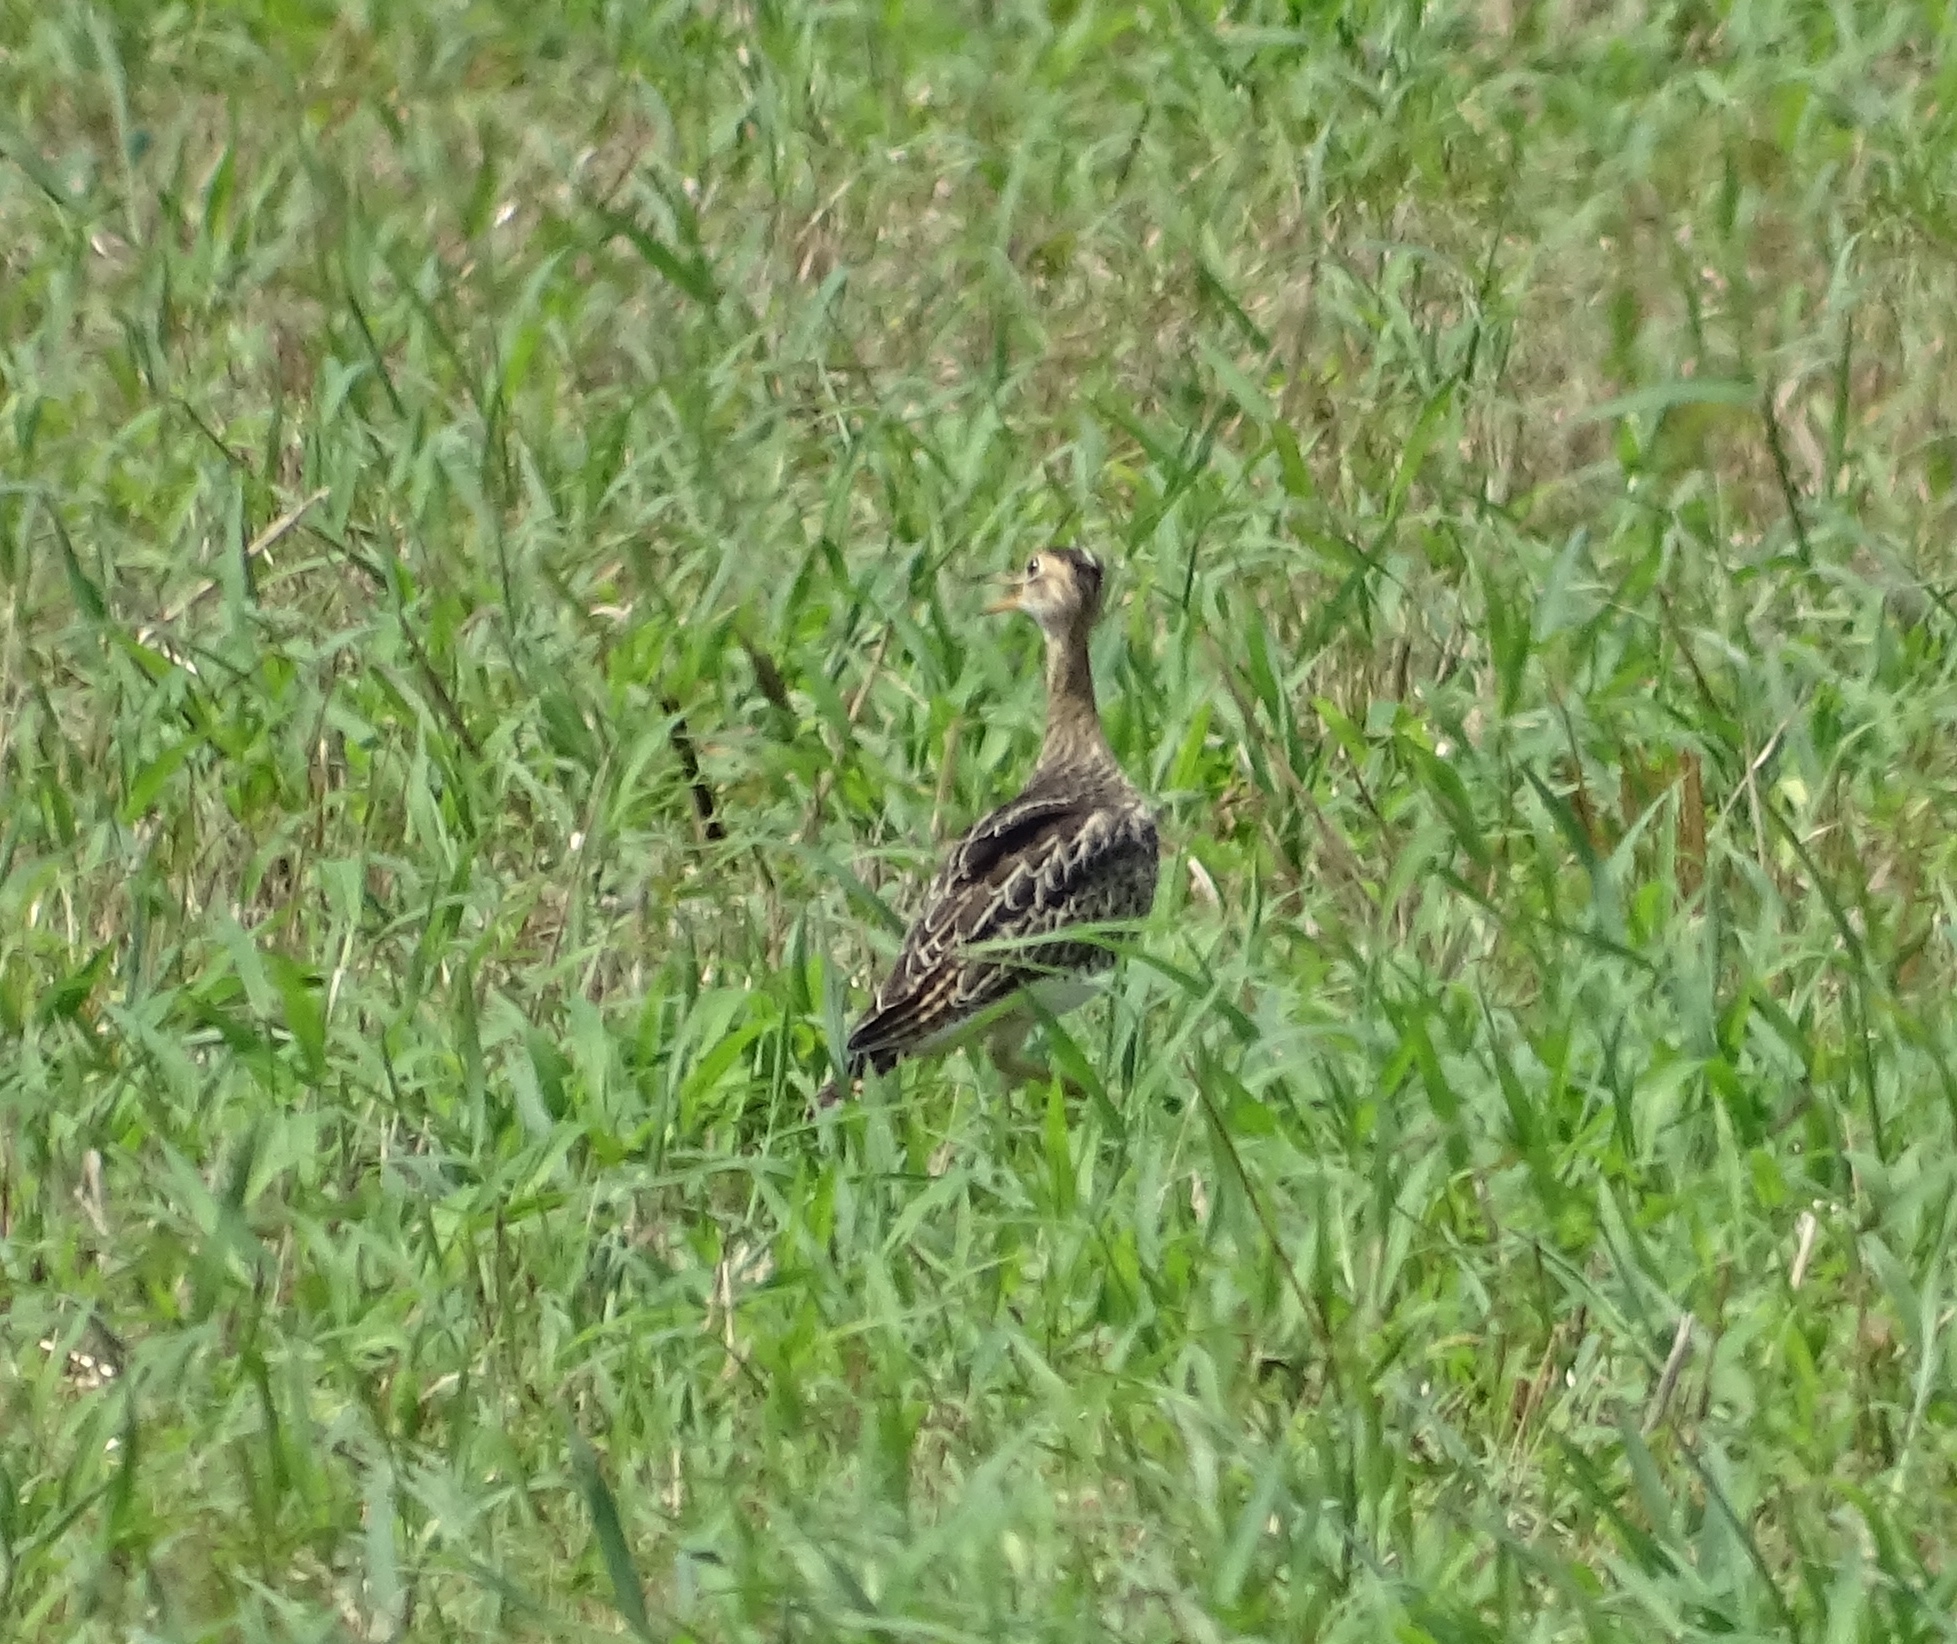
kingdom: Animalia
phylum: Chordata
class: Aves
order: Charadriiformes
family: Scolopacidae
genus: Bartramia
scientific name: Bartramia longicauda
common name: Upland sandpiper
